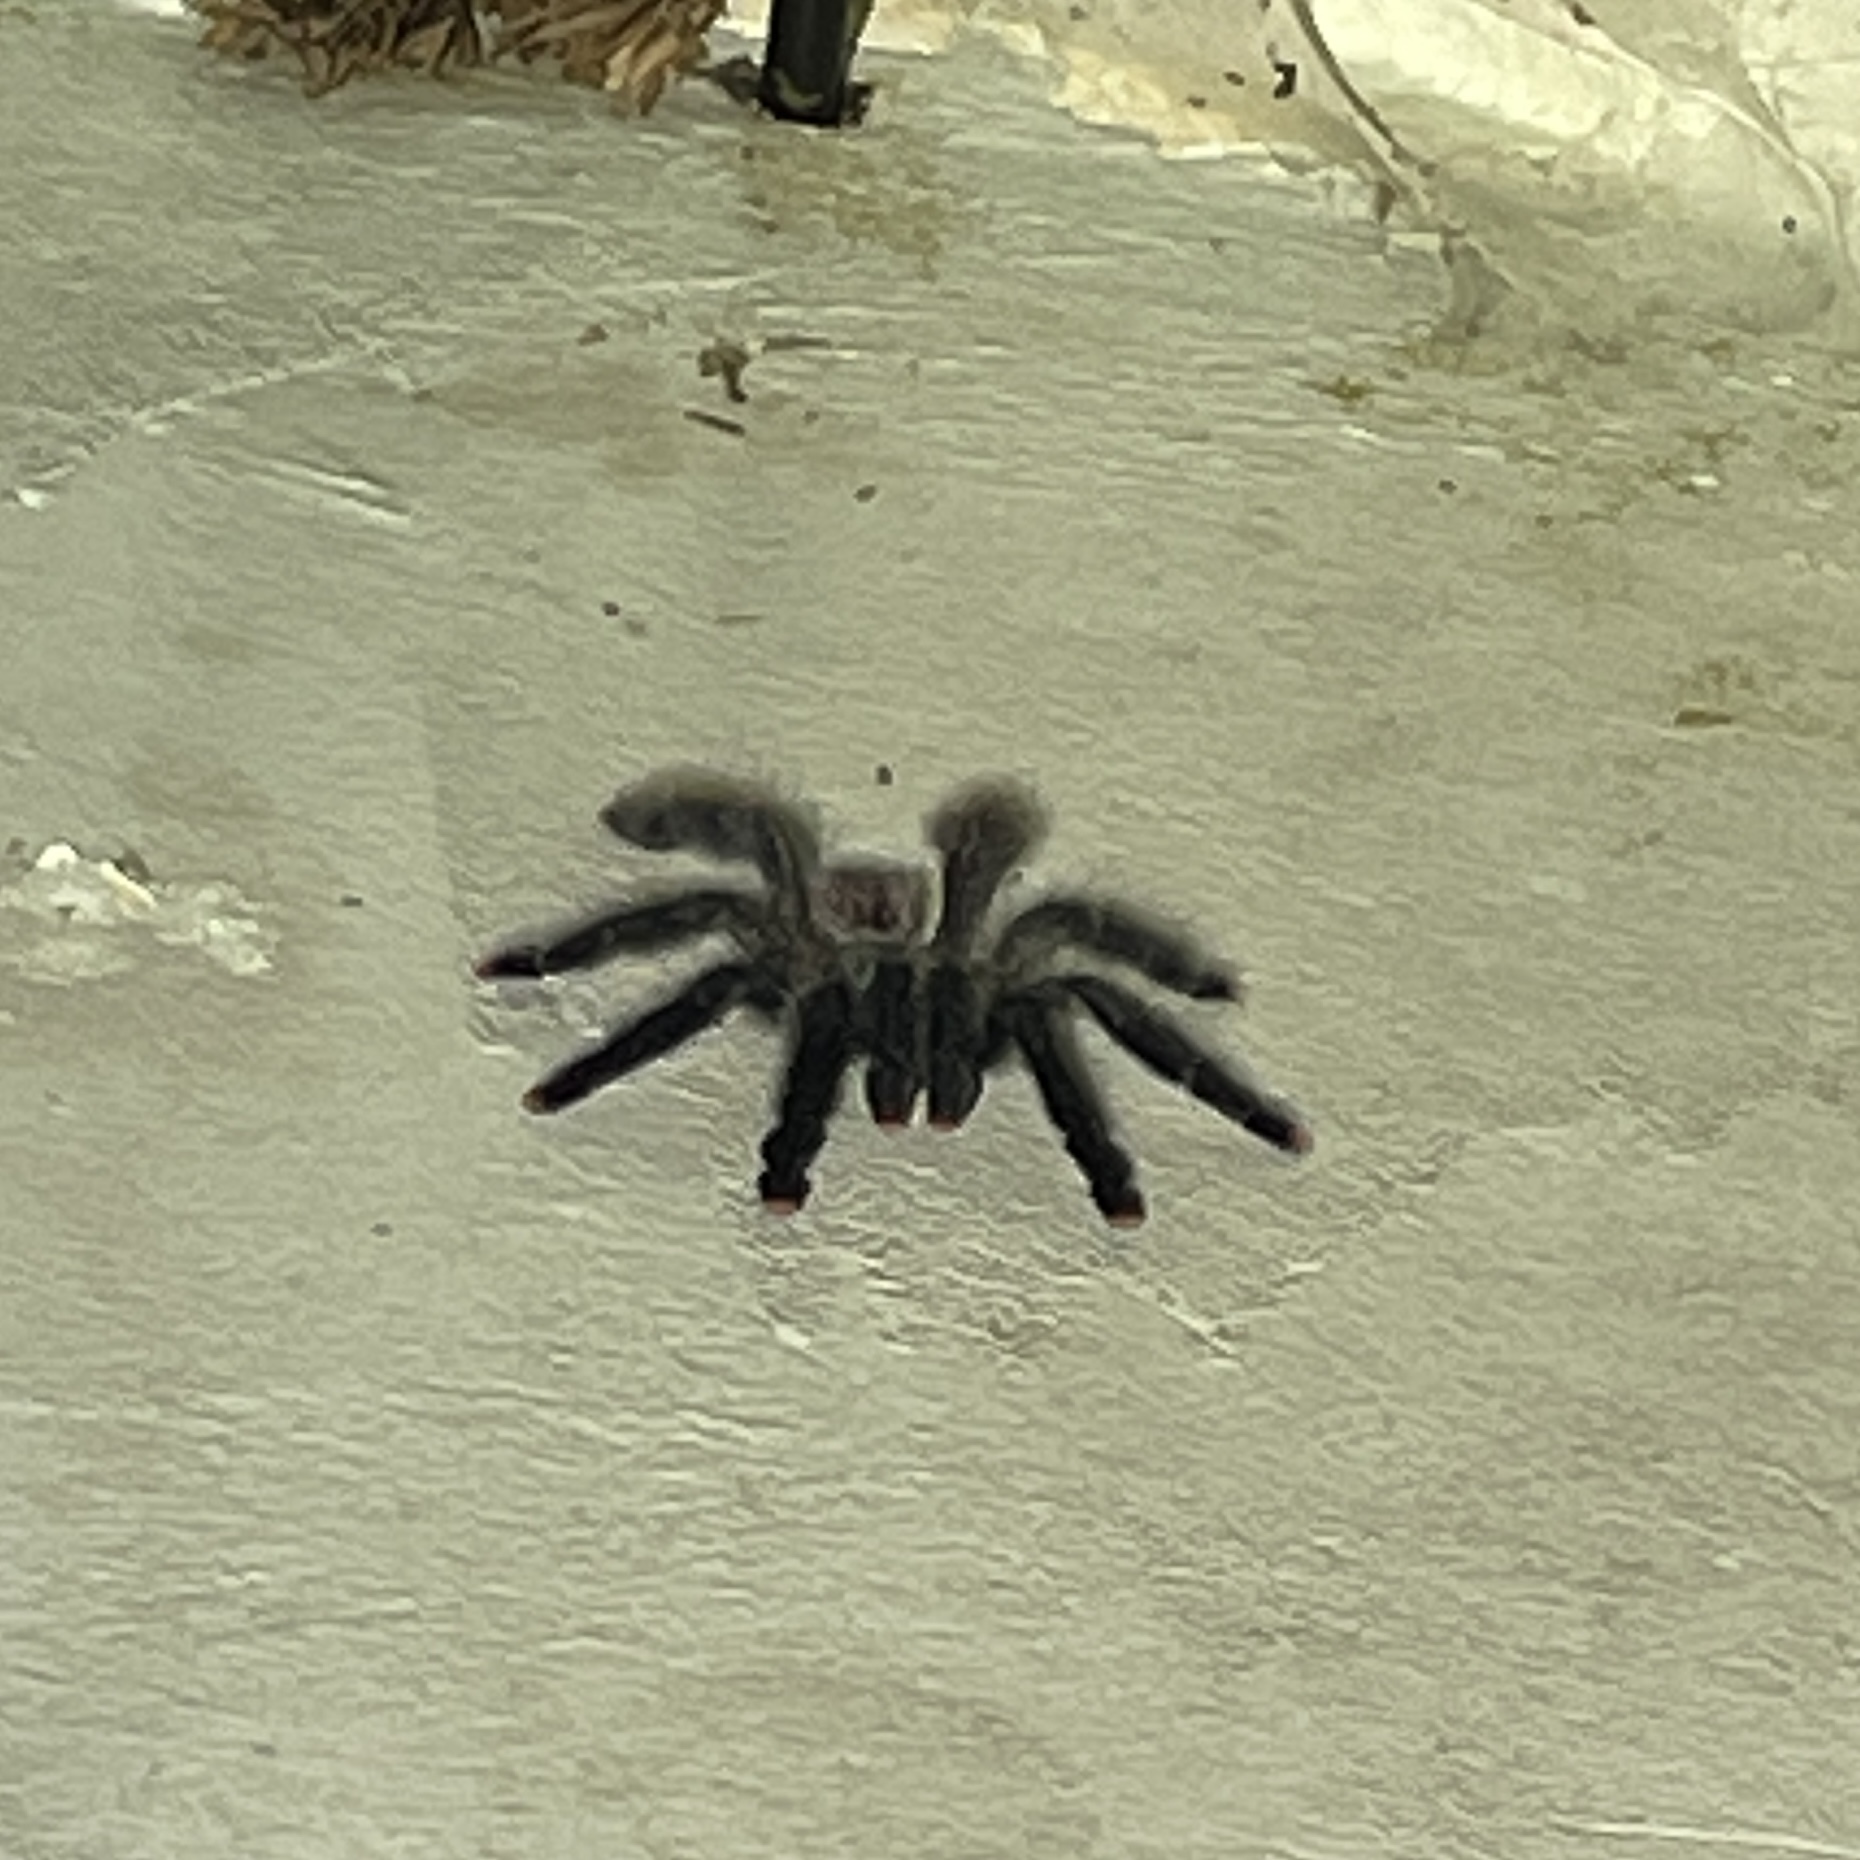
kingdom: Animalia
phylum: Arthropoda
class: Arachnida
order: Araneae
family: Theraphosidae
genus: Avicularia
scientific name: Avicularia avicularia
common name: Tarantula spiders
